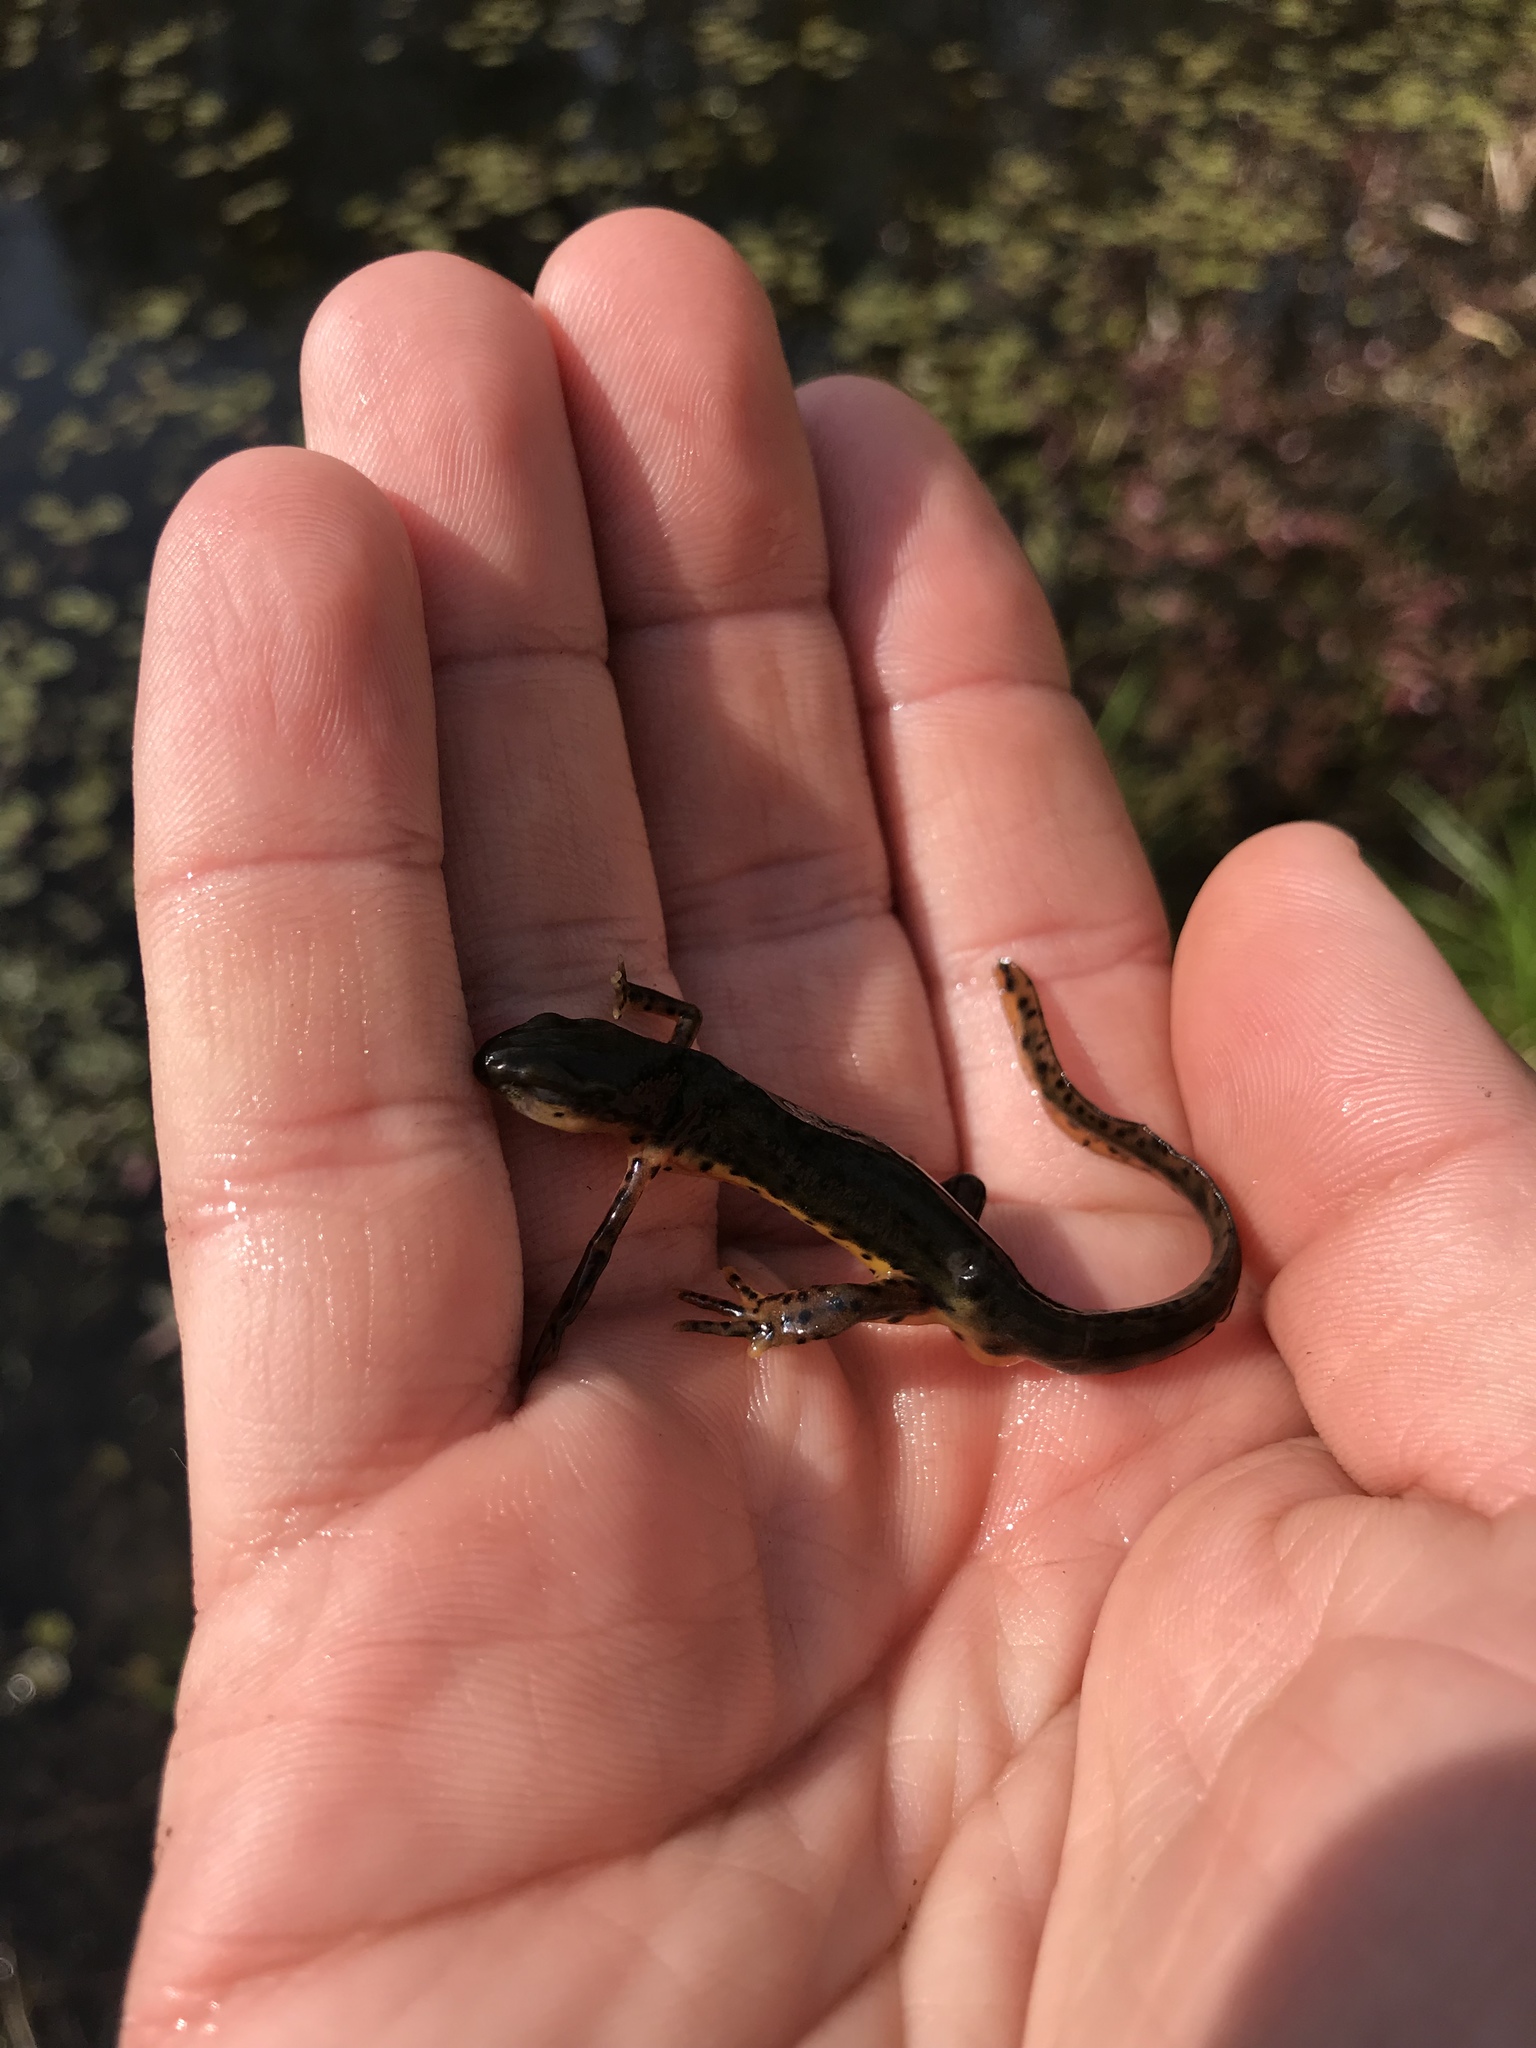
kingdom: Animalia
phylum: Chordata
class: Amphibia
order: Caudata
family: Salamandridae
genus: Notophthalmus
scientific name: Notophthalmus viridescens
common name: Eastern newt
